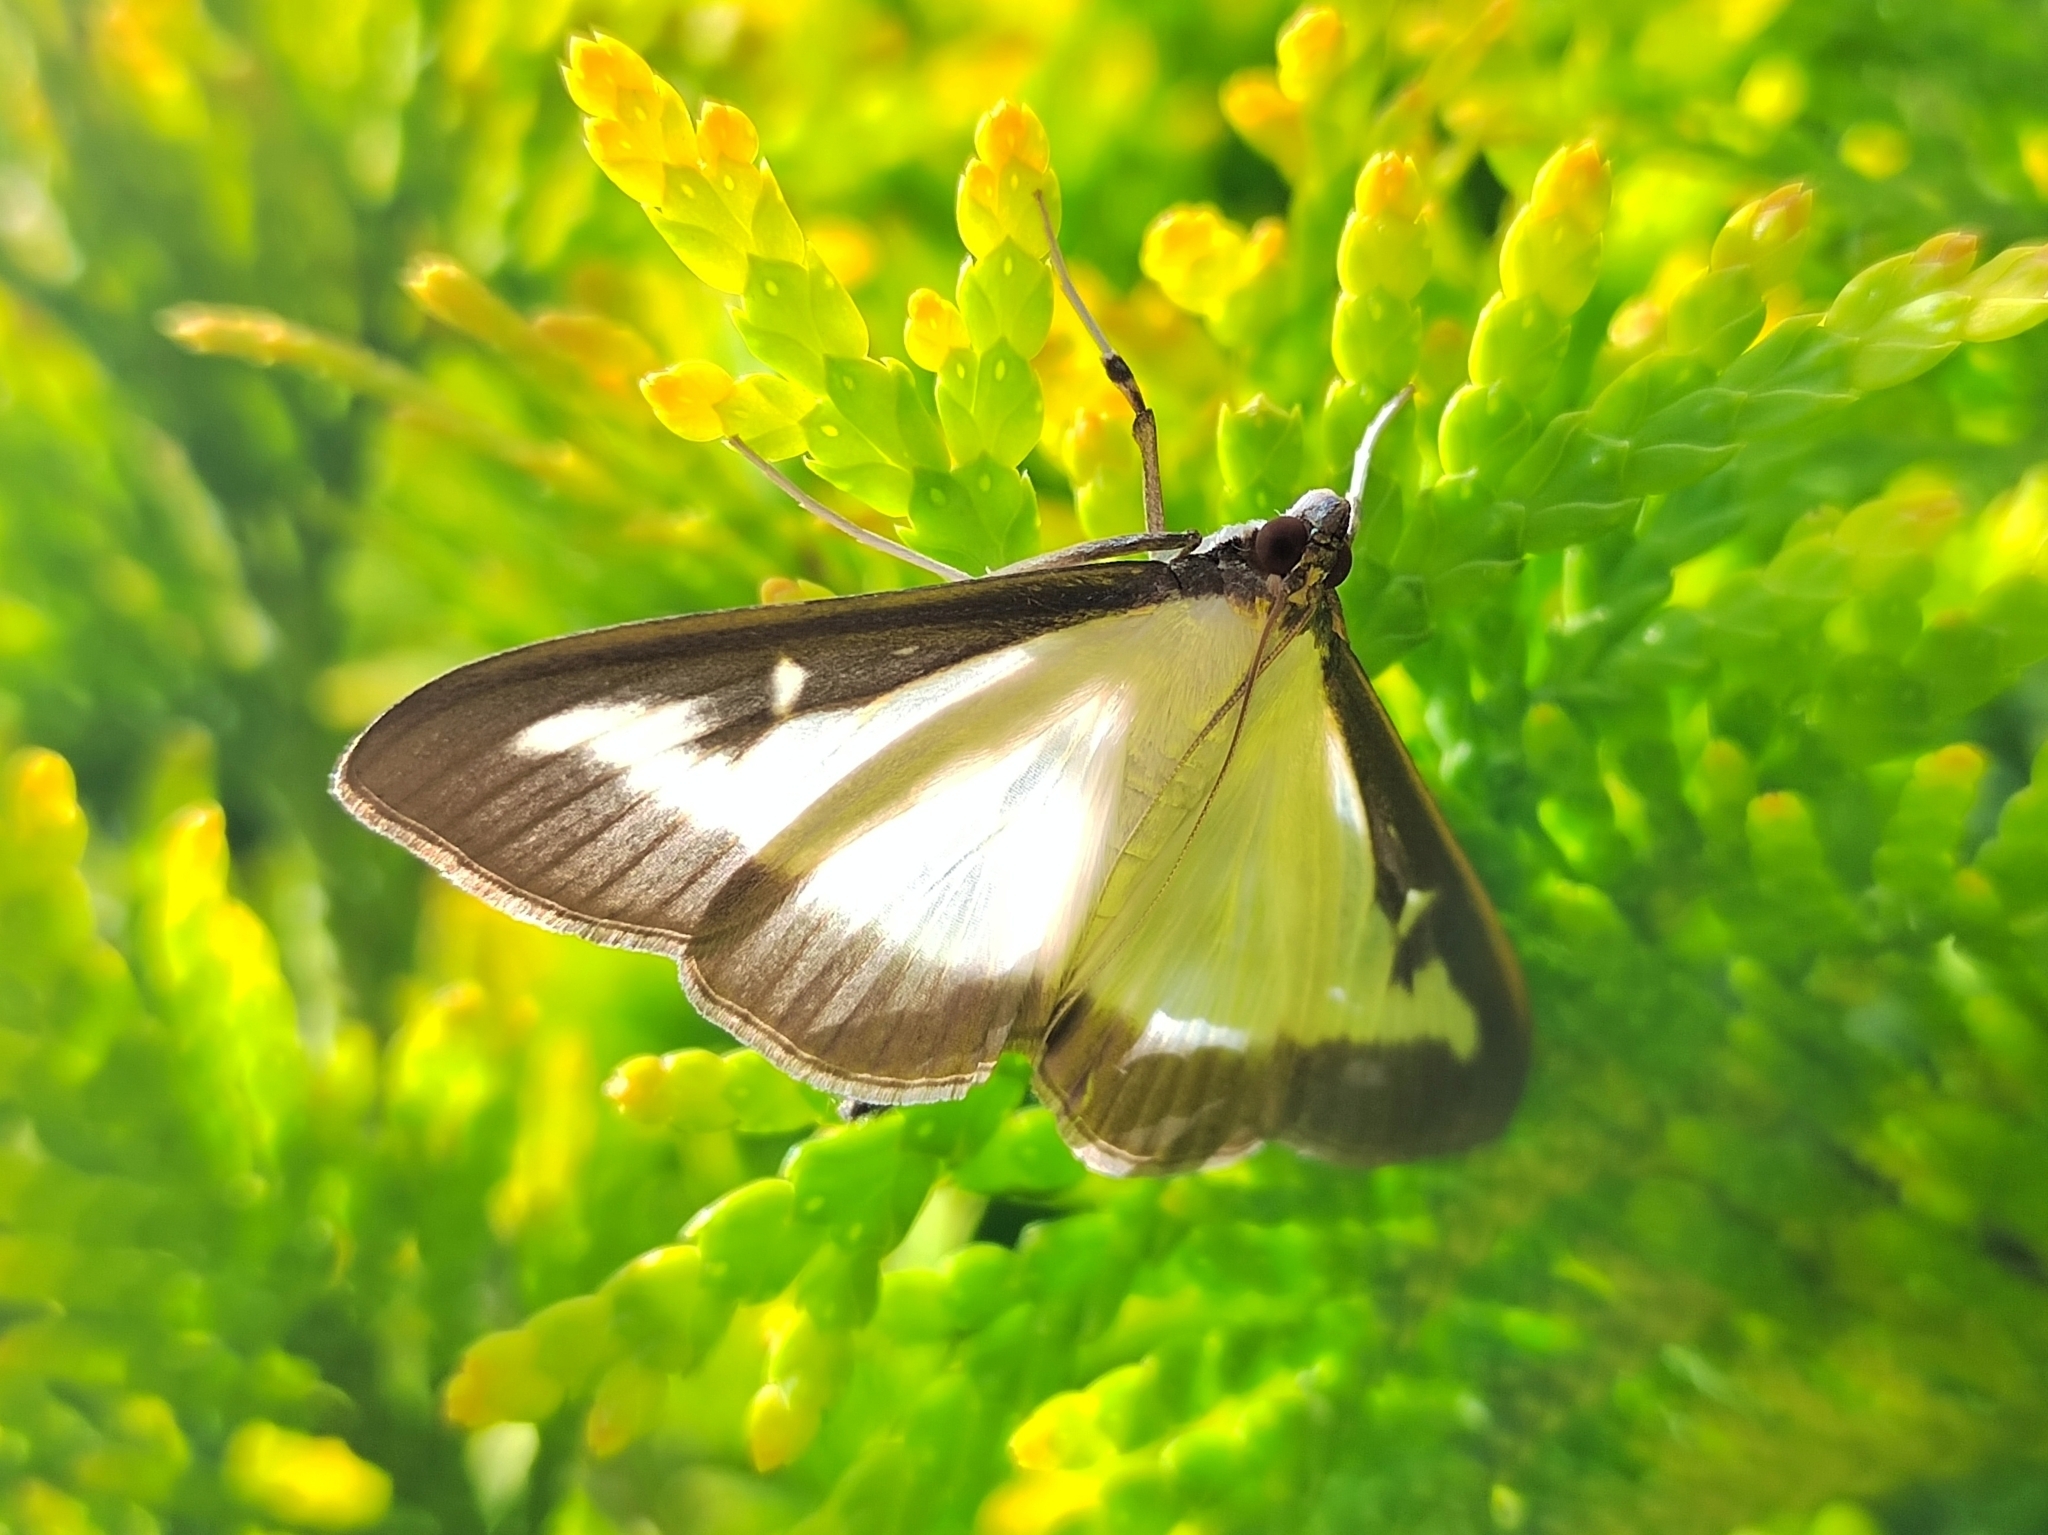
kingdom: Animalia
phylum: Arthropoda
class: Insecta
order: Lepidoptera
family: Crambidae
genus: Cydalima
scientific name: Cydalima perspectalis
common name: Box tree moth
